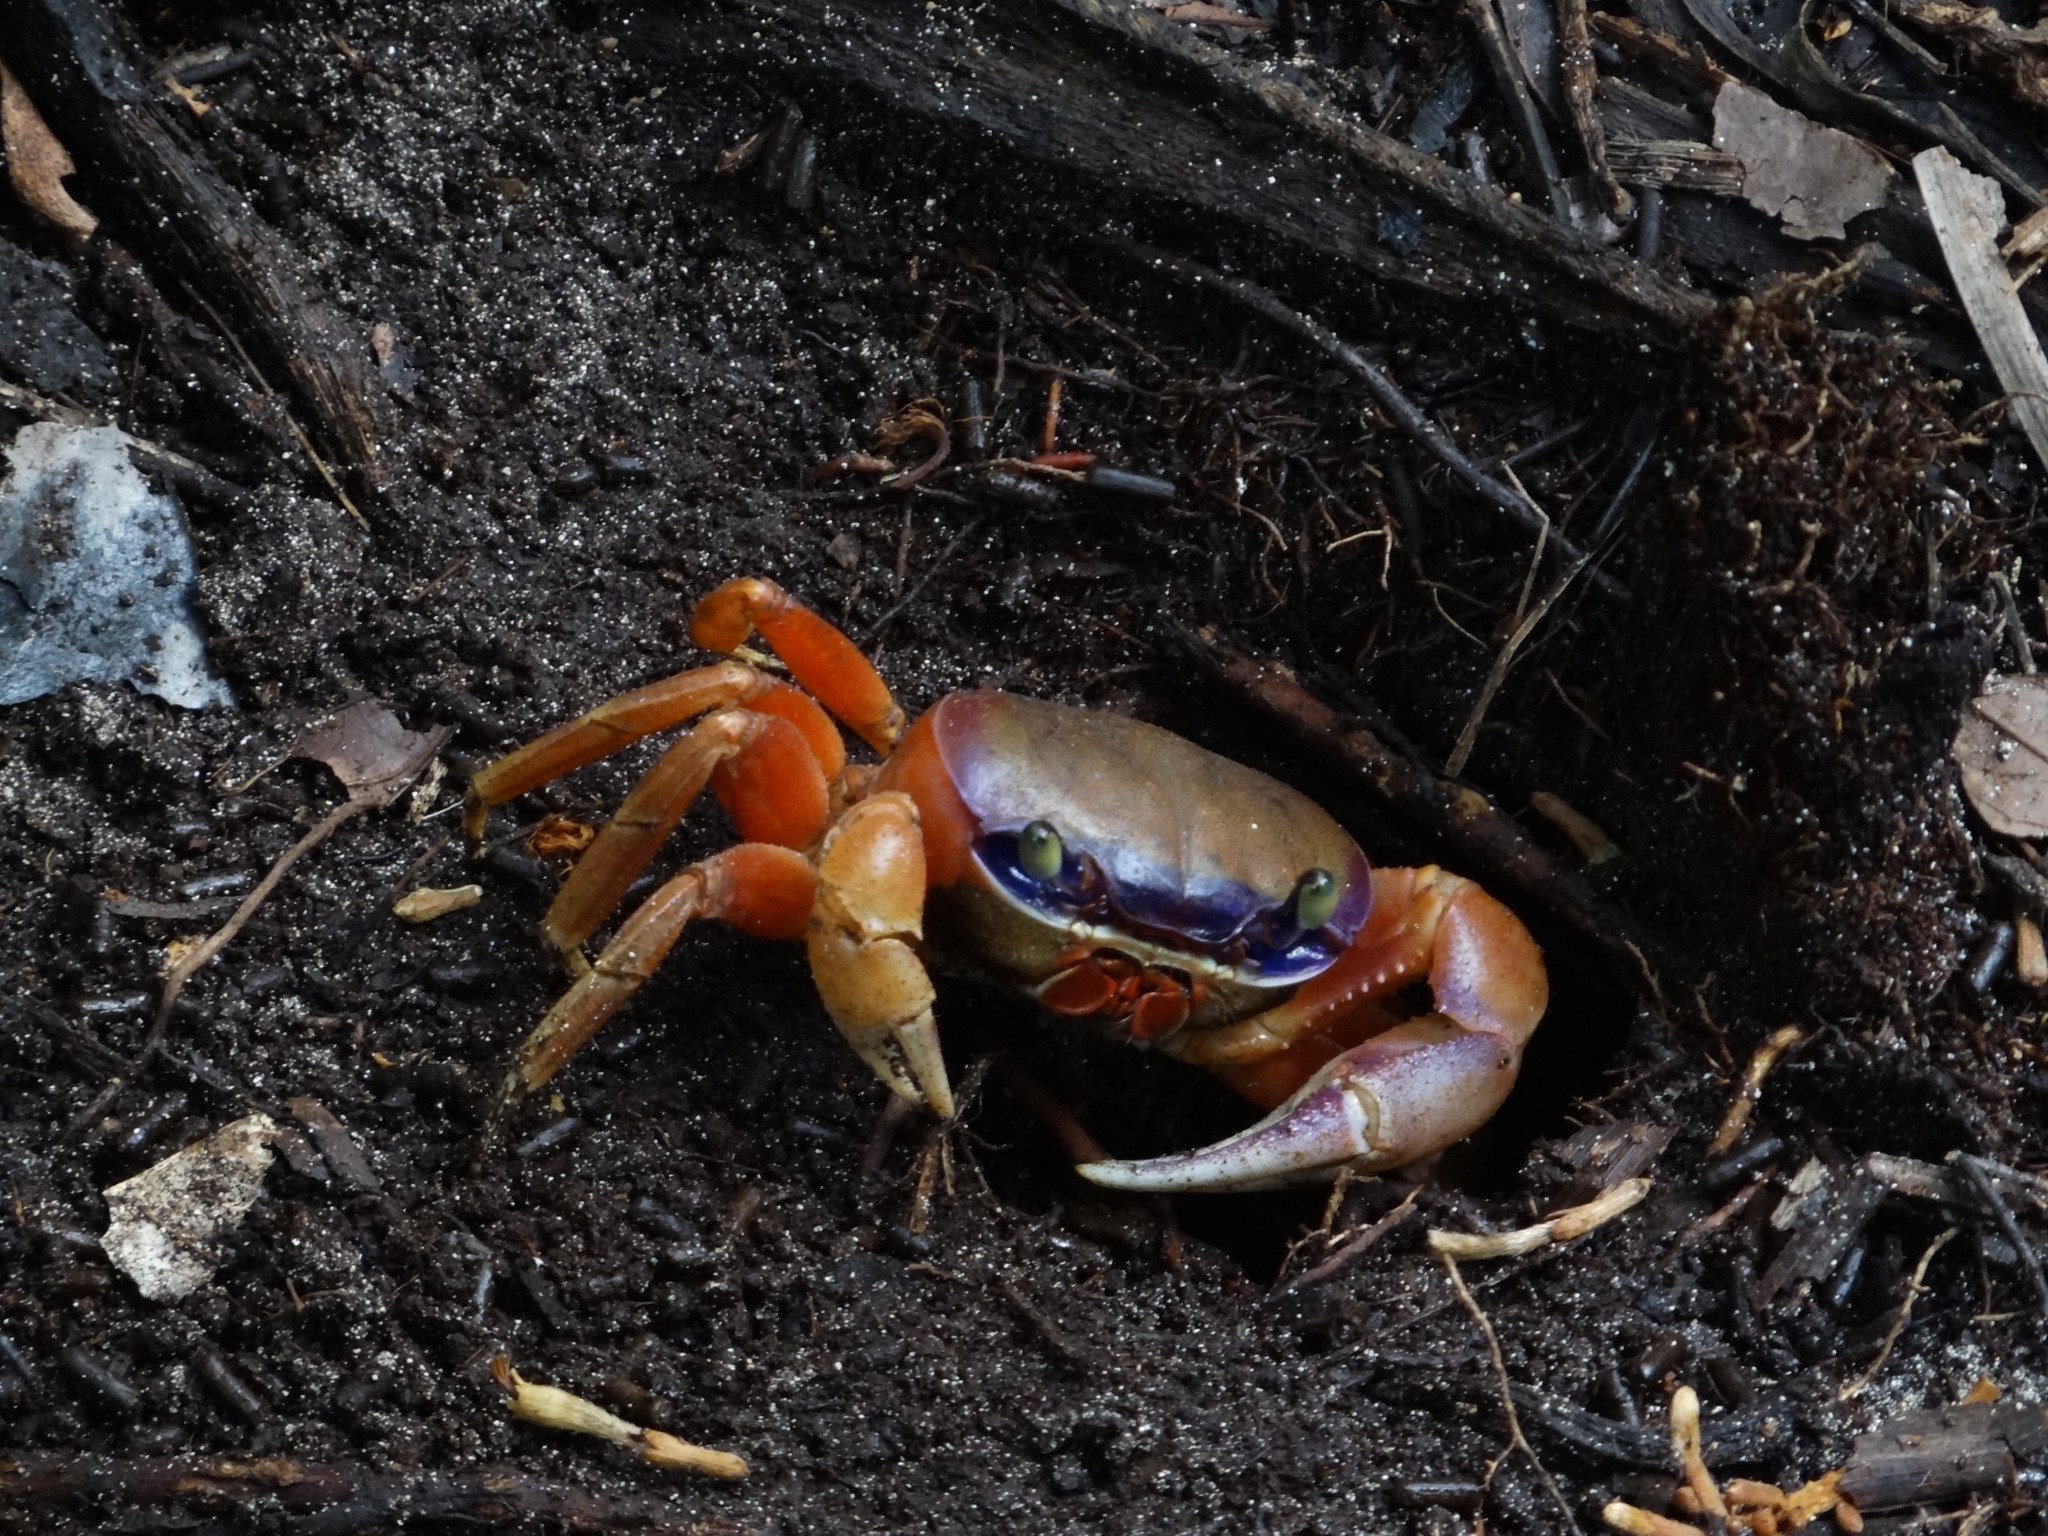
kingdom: Animalia
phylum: Arthropoda
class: Malacostraca
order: Decapoda
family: Gecarcinidae
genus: Cardisoma
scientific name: Cardisoma guanhumi
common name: Great land crab
